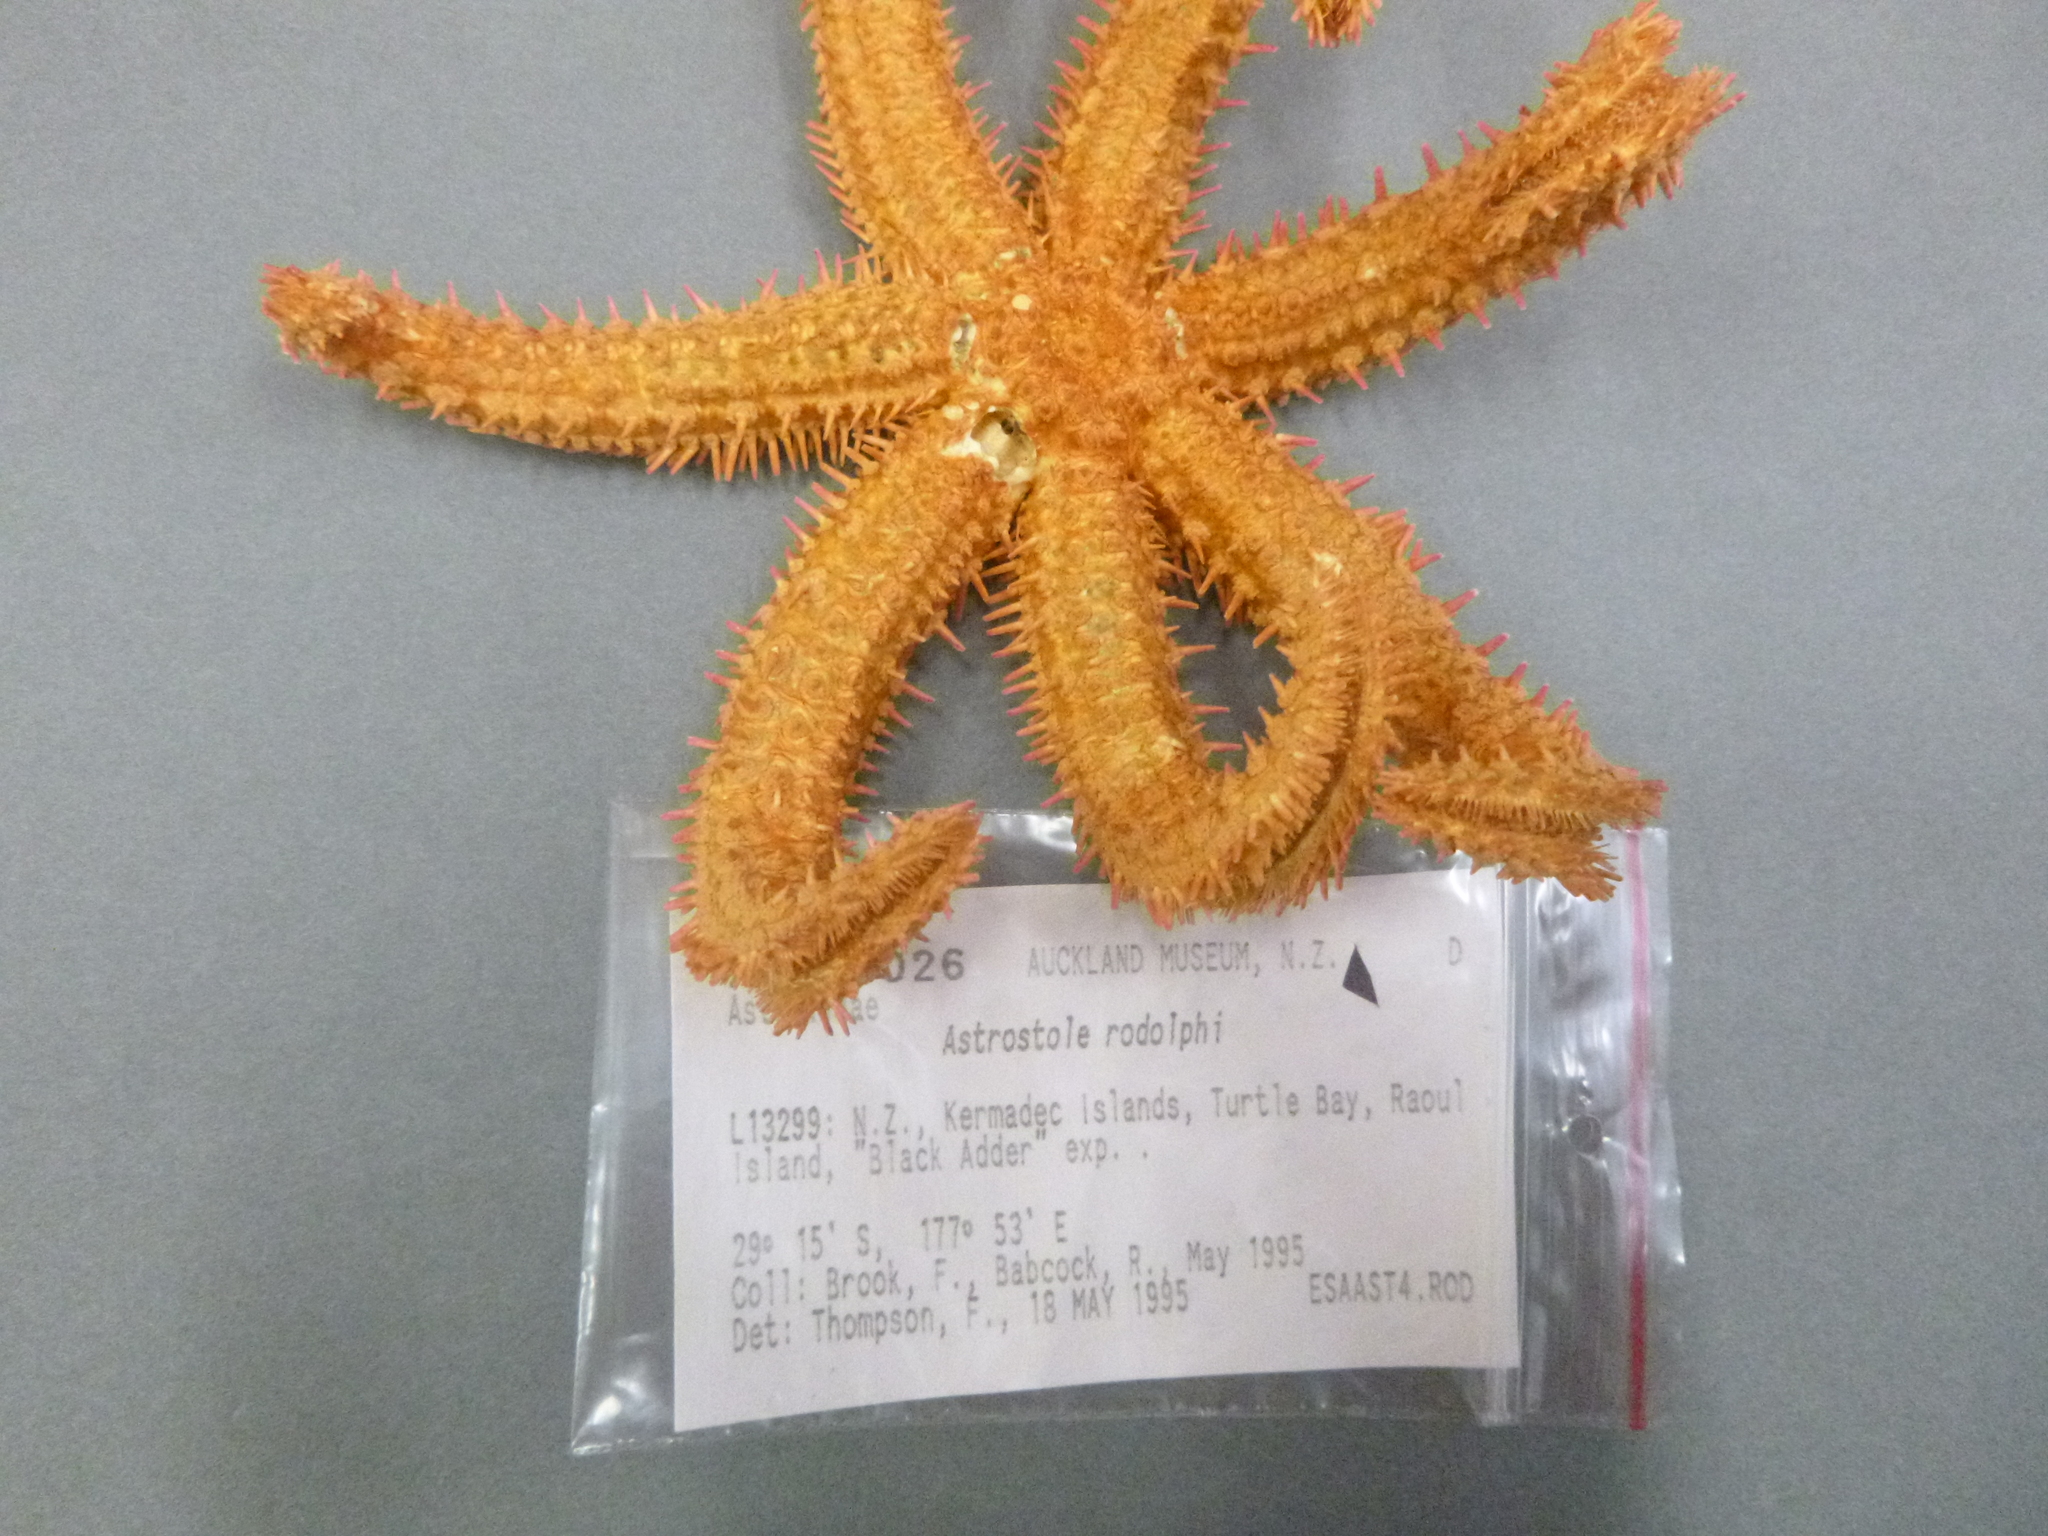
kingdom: Animalia
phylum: Echinodermata
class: Asteroidea
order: Forcipulatida
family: Asteriidae
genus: Astrostole
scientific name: Astrostole rodolphi
